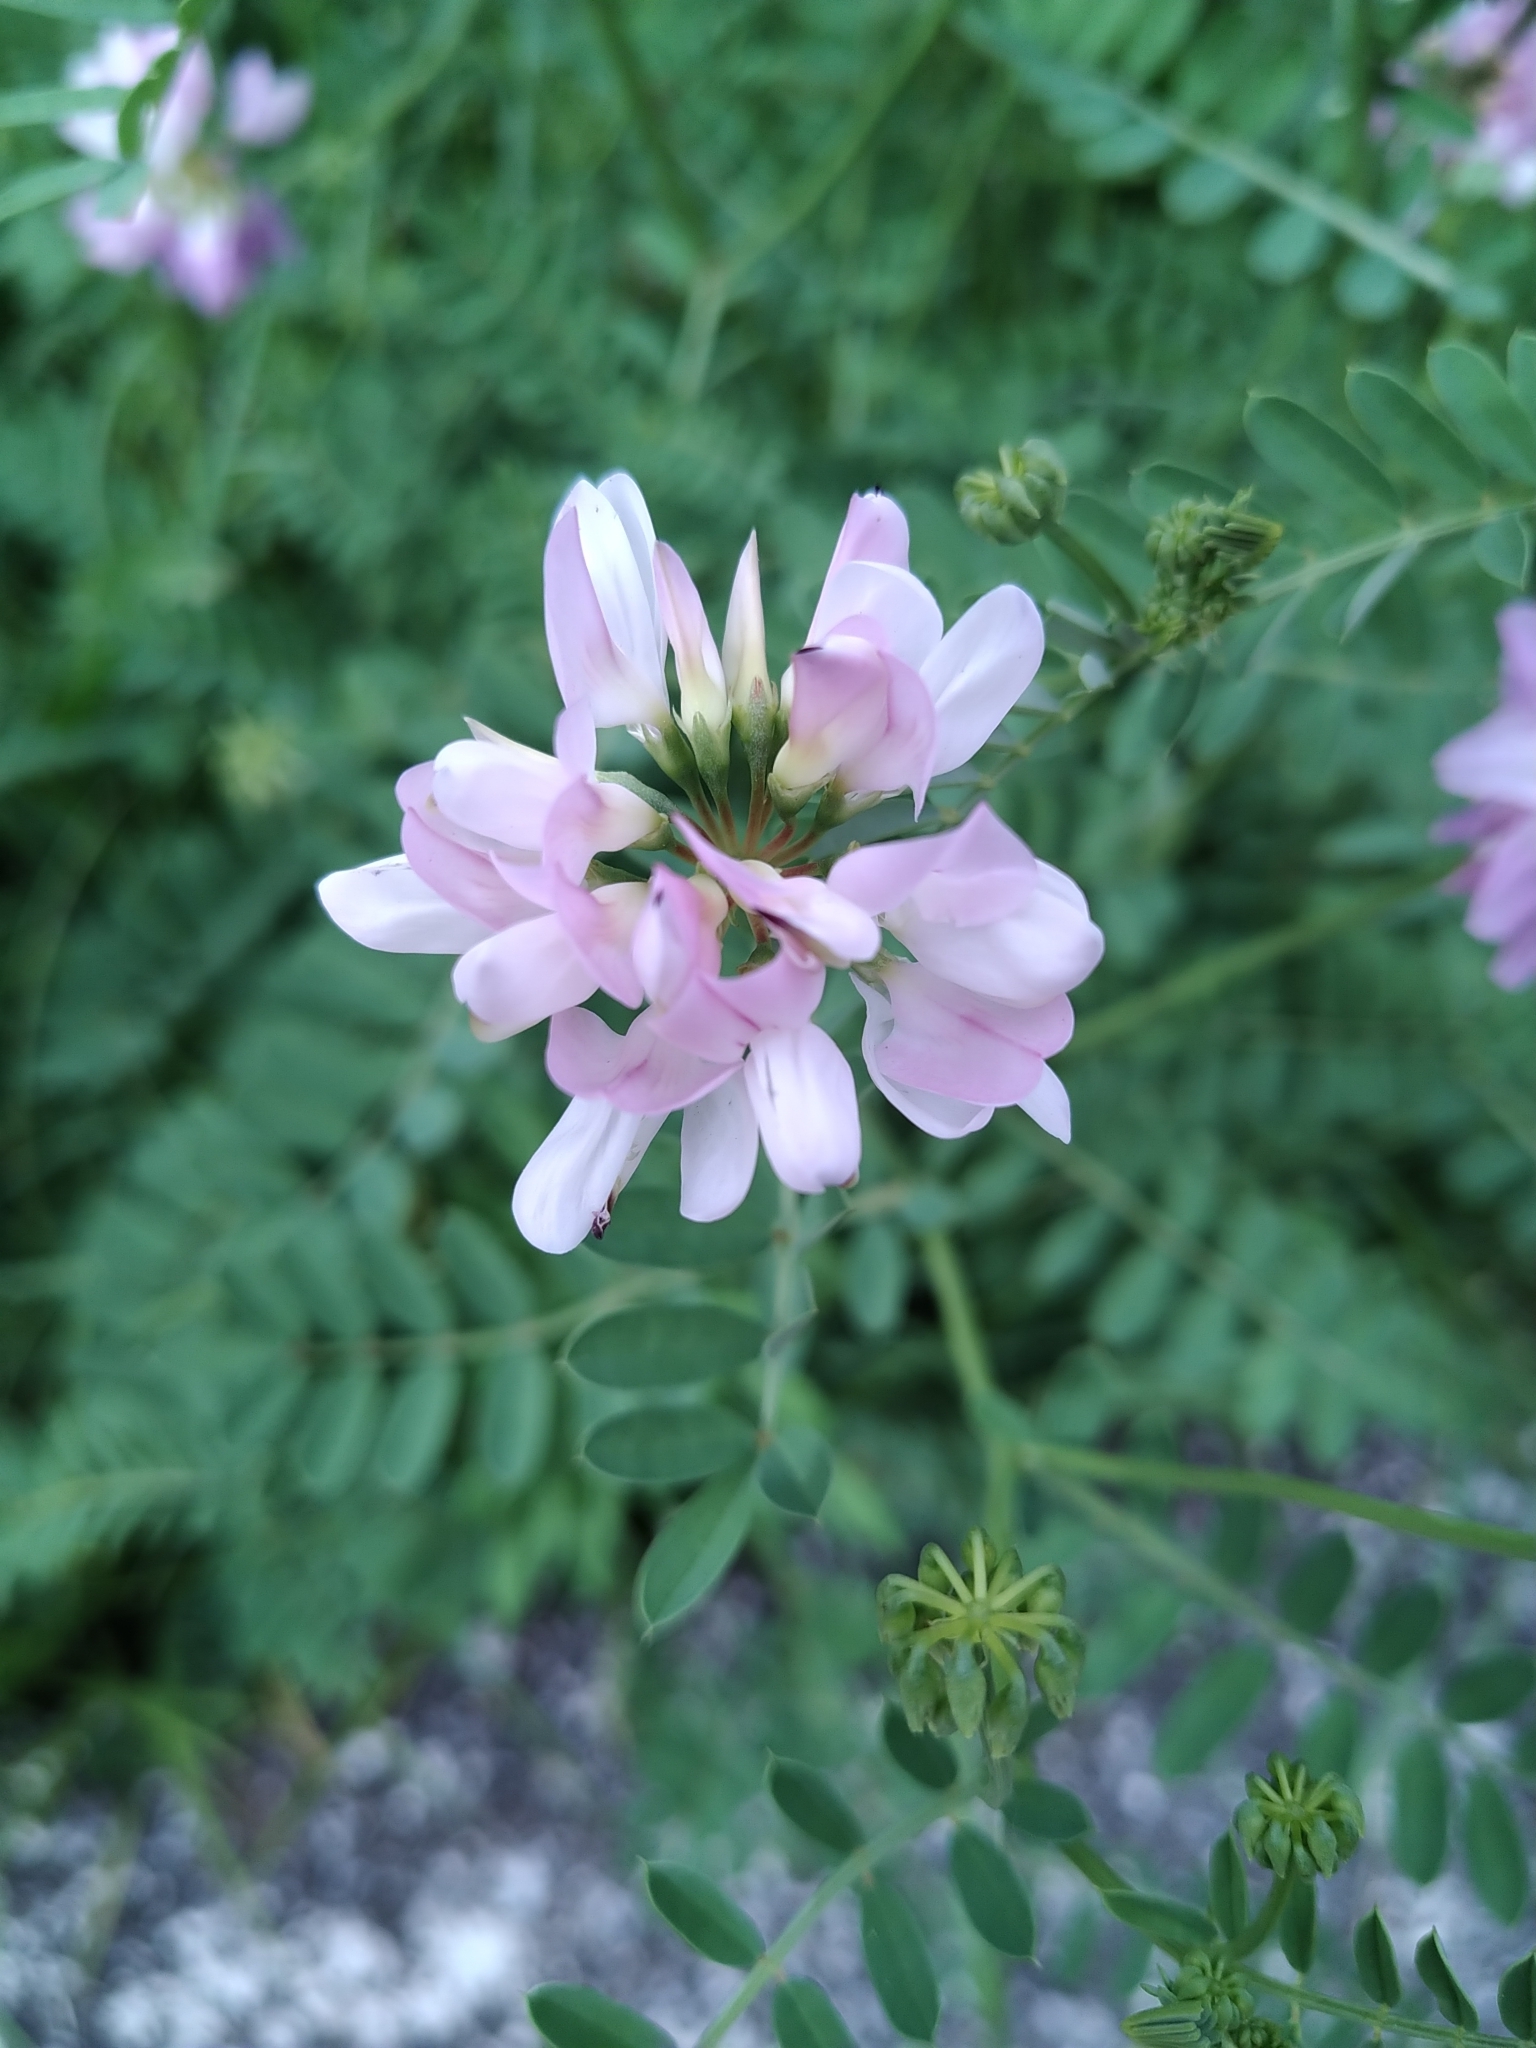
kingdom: Plantae
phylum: Tracheophyta
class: Magnoliopsida
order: Fabales
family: Fabaceae
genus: Coronilla
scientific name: Coronilla varia
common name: Crownvetch
